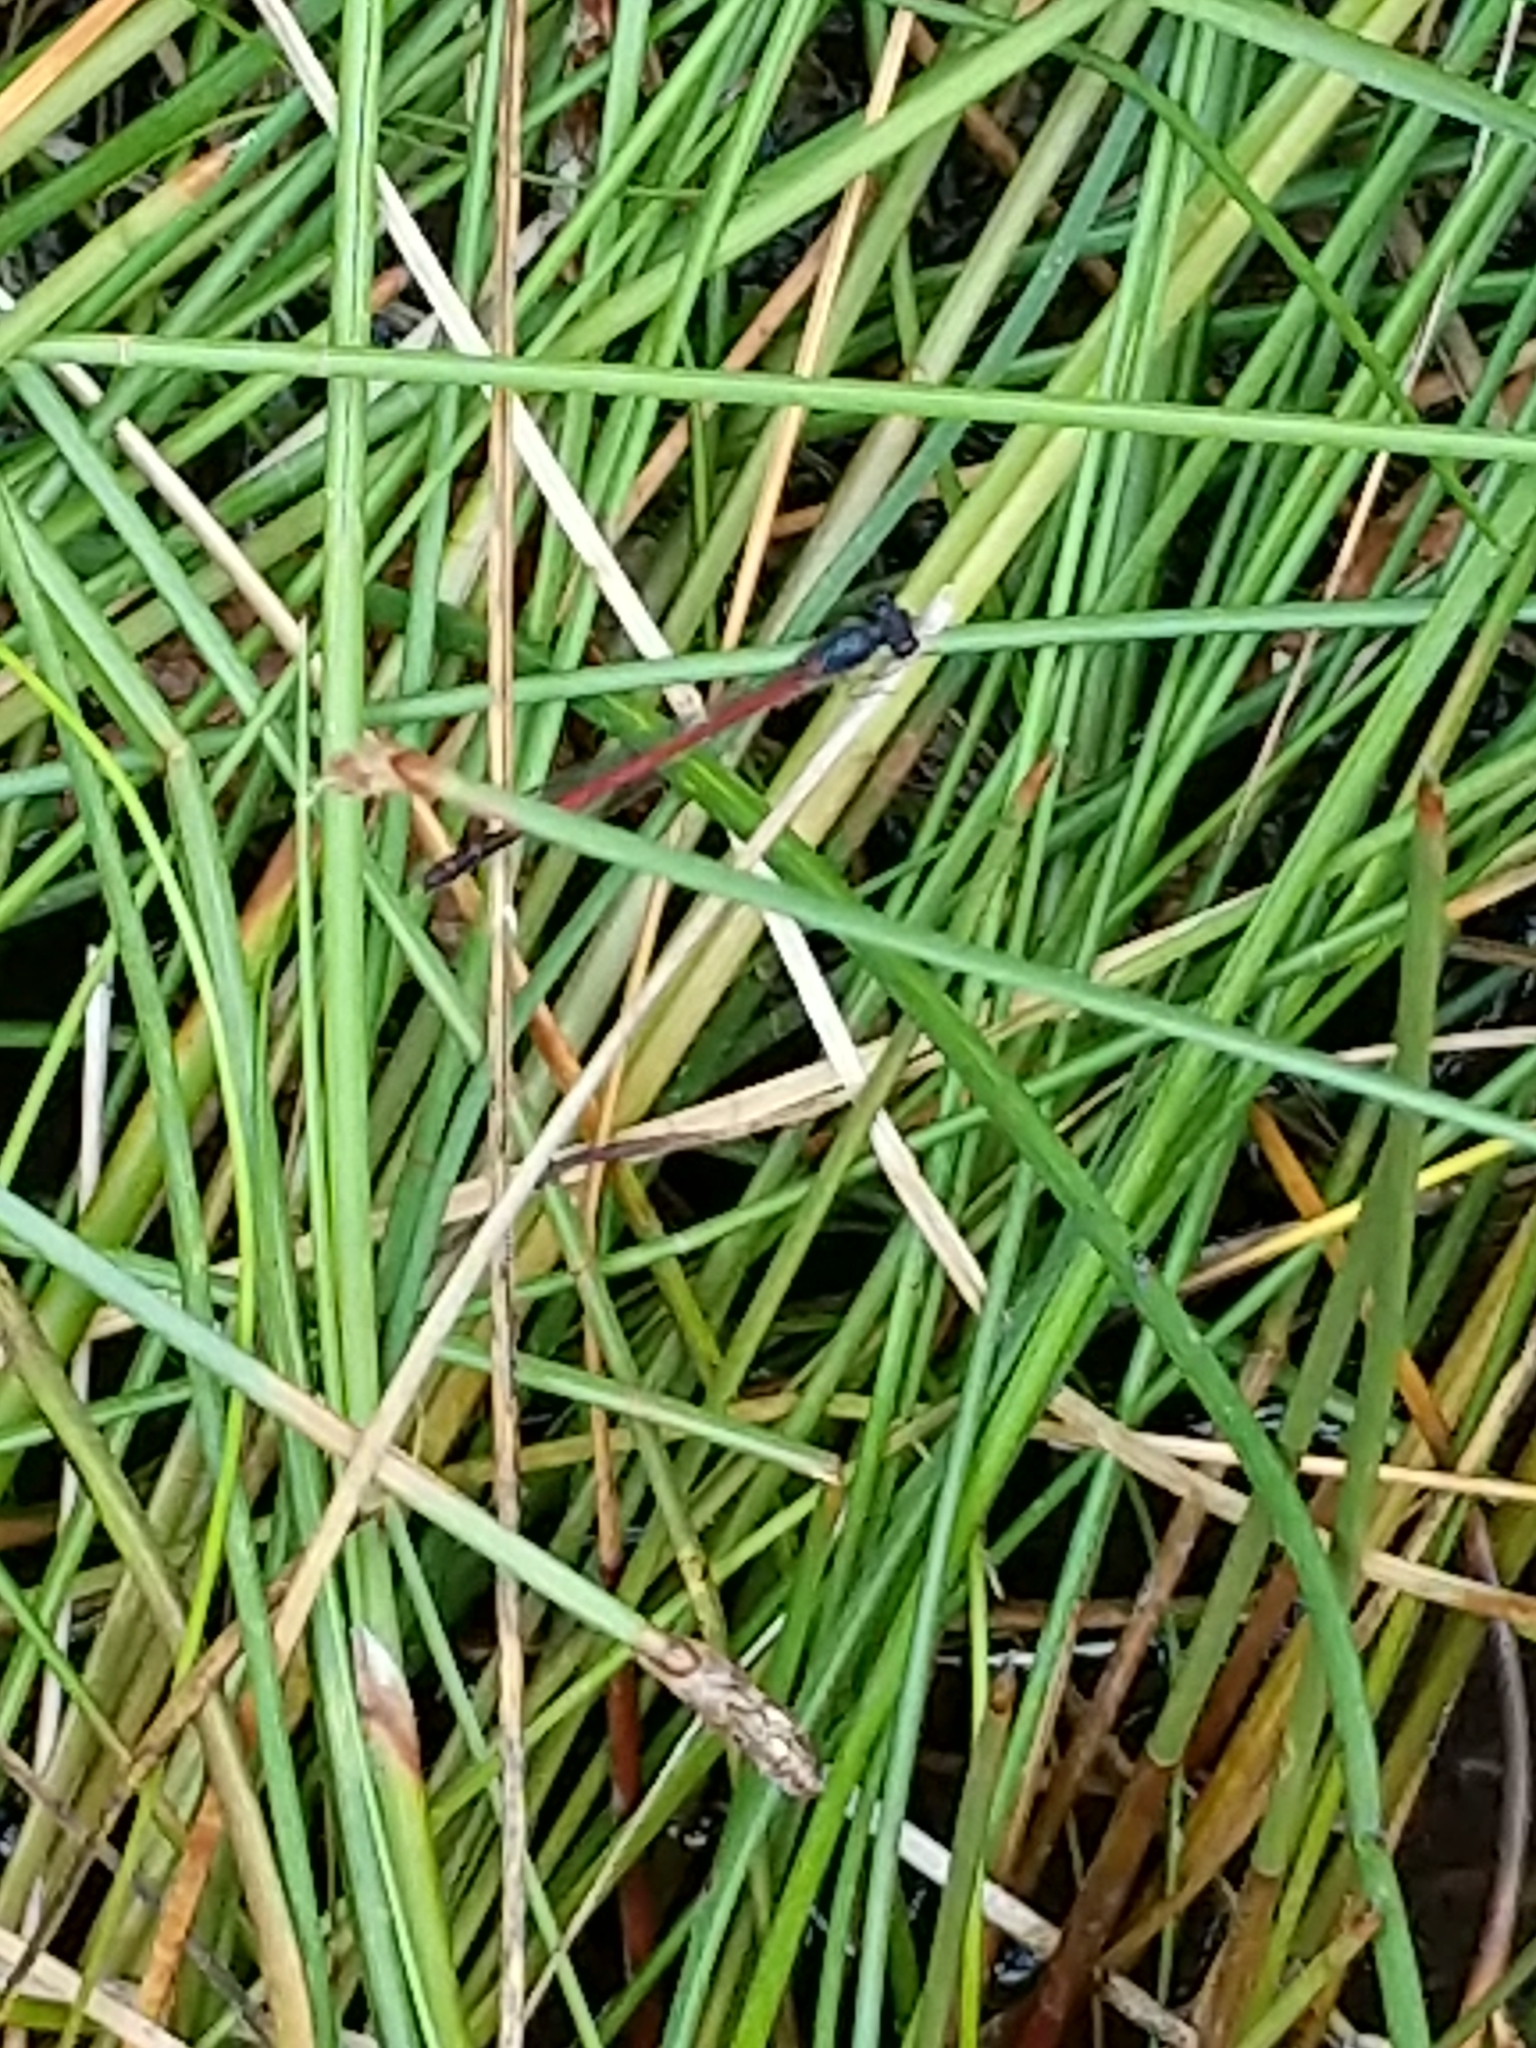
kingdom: Animalia
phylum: Arthropoda
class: Insecta
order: Odonata
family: Coenagrionidae
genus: Amphiagrion
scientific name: Amphiagrion saucium
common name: Eastern red damsel
